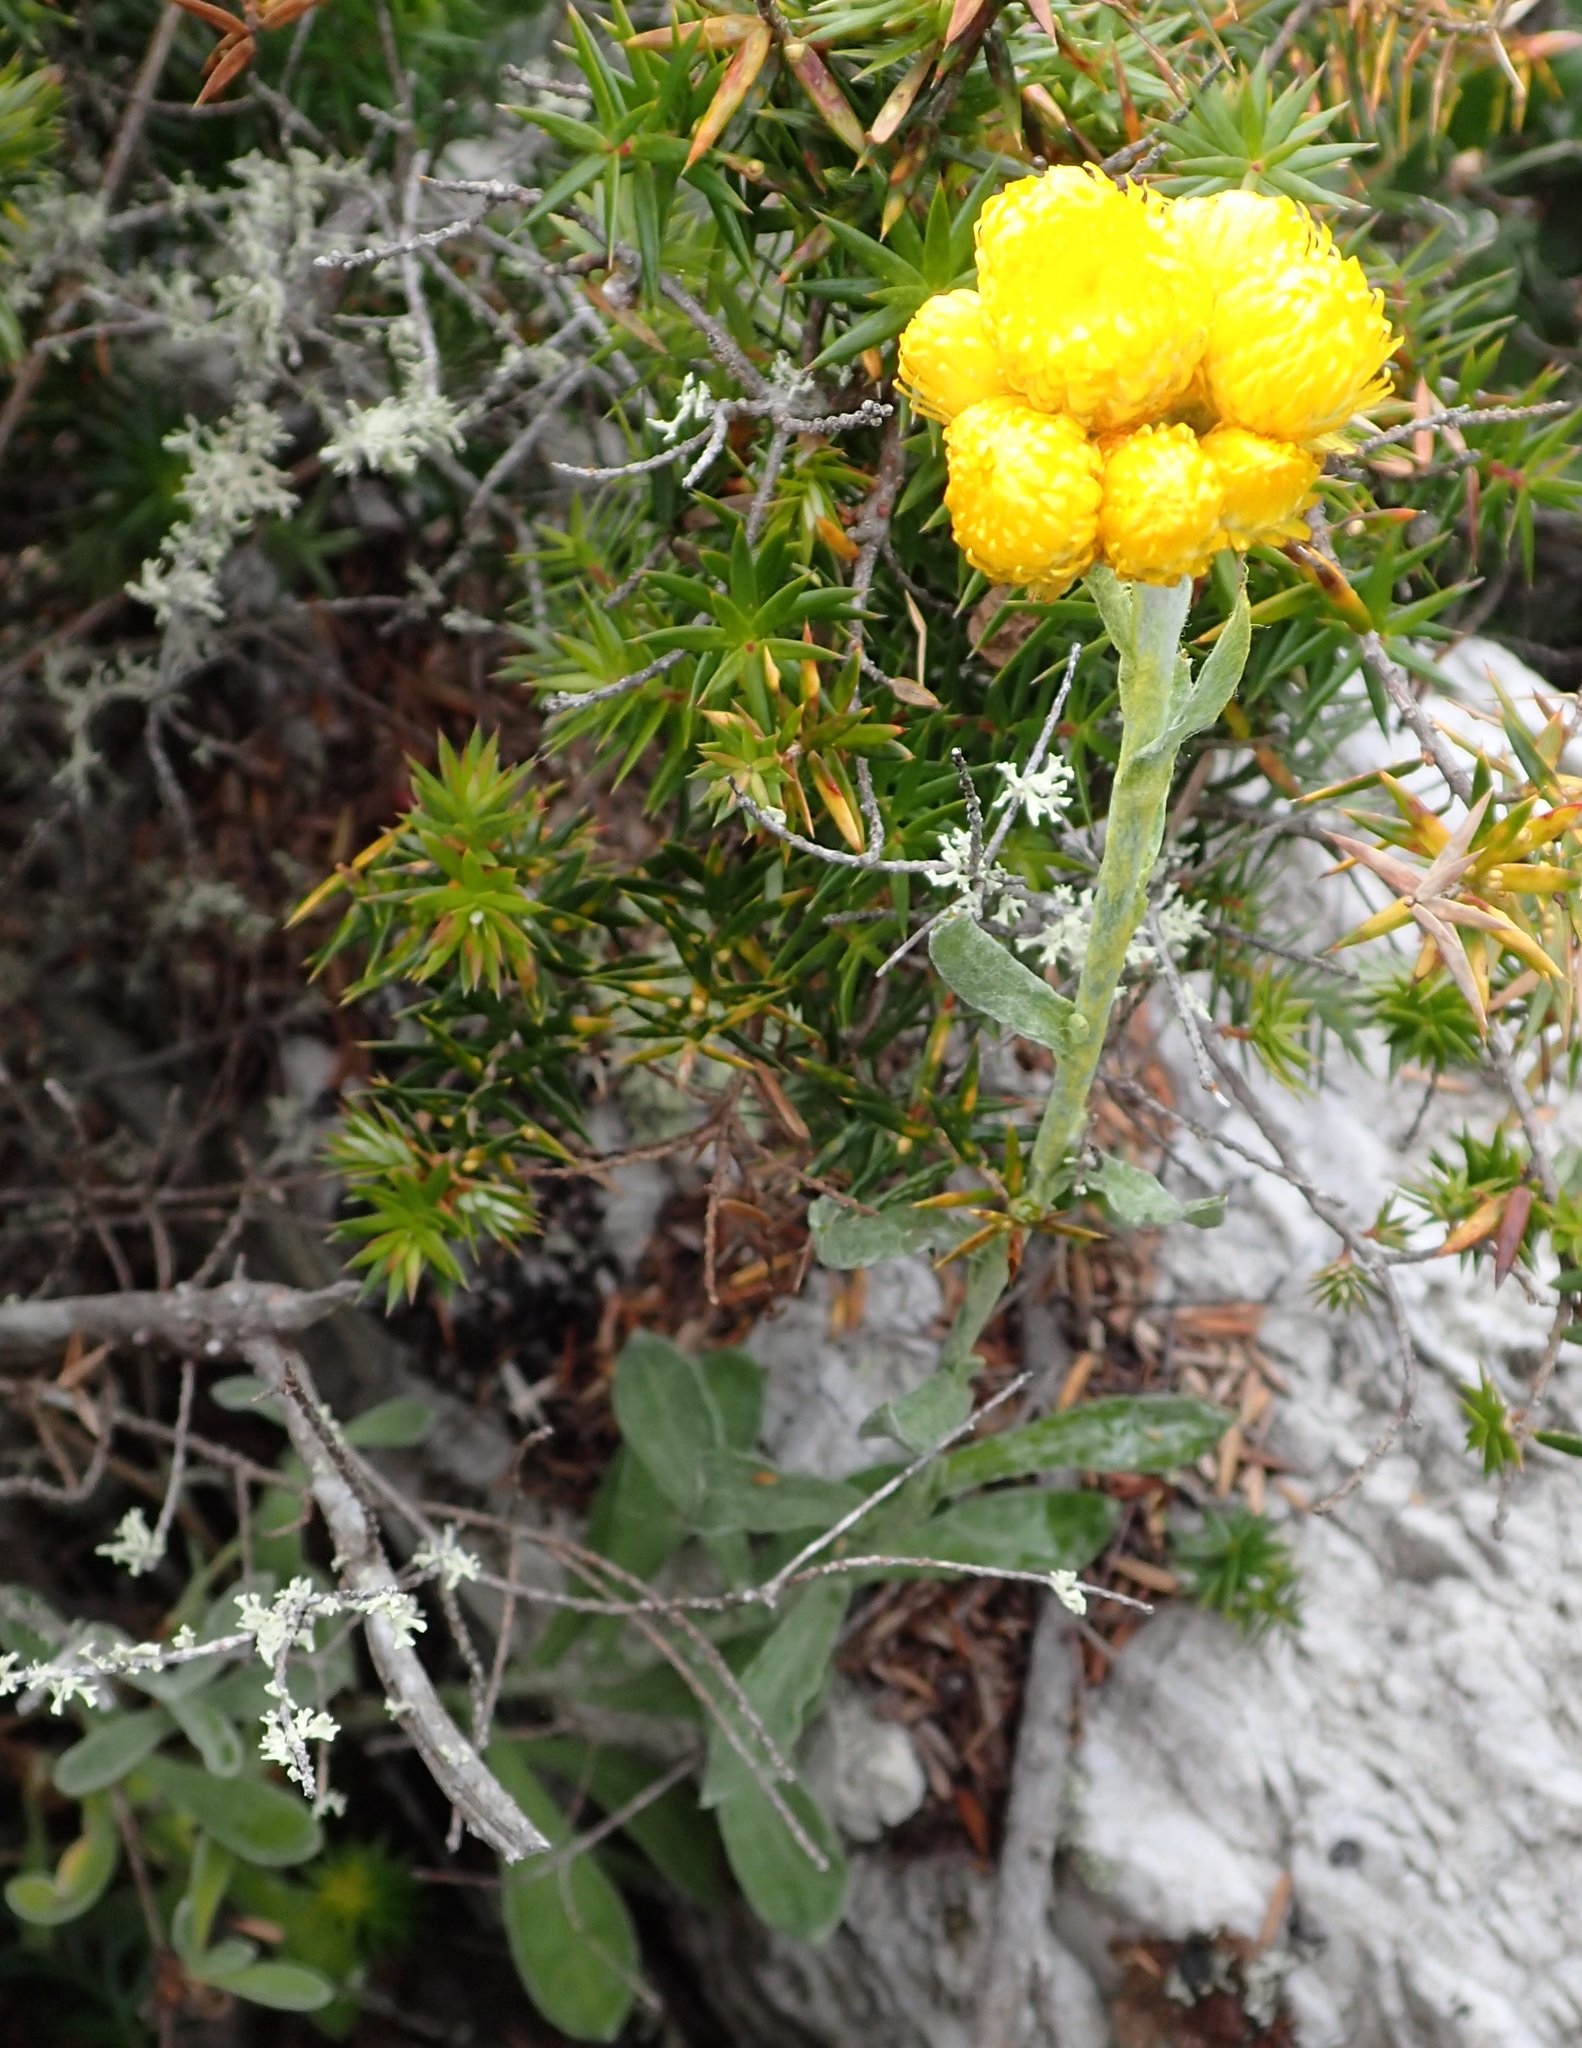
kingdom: Plantae
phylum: Tracheophyta
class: Magnoliopsida
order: Asterales
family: Asteraceae
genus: Chrysocephalum
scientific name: Chrysocephalum apiculatum
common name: Common everlasting
